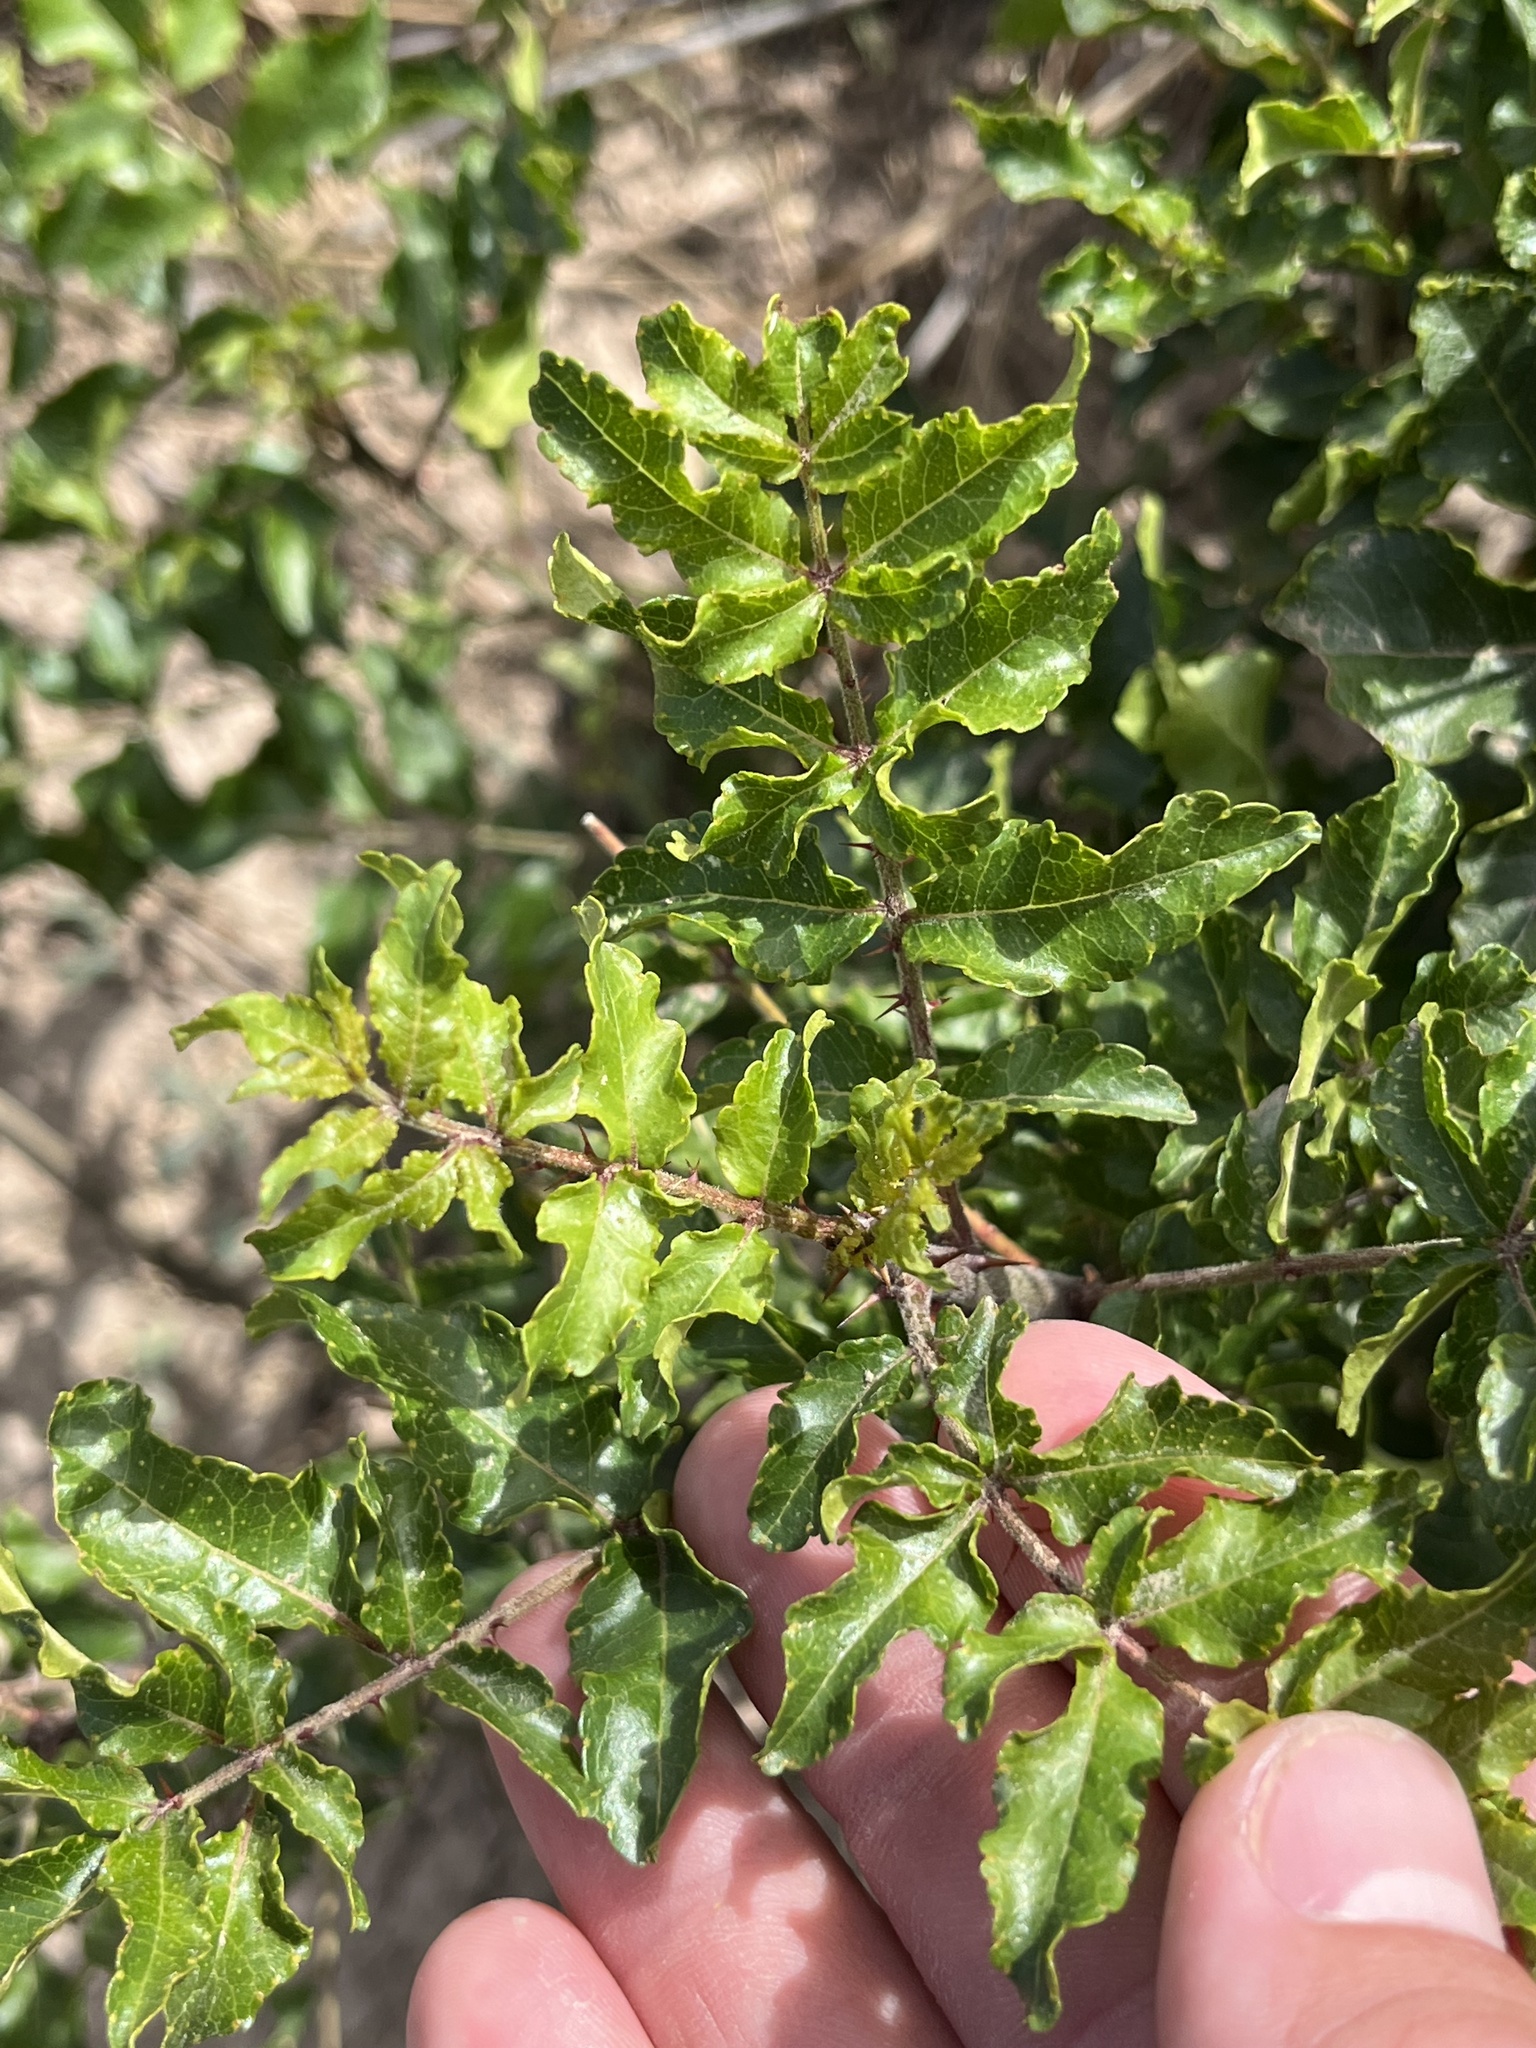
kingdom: Plantae
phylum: Tracheophyta
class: Magnoliopsida
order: Sapindales
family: Rutaceae
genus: Zanthoxylum
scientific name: Zanthoxylum clava-herculis
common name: Hercules'-club
